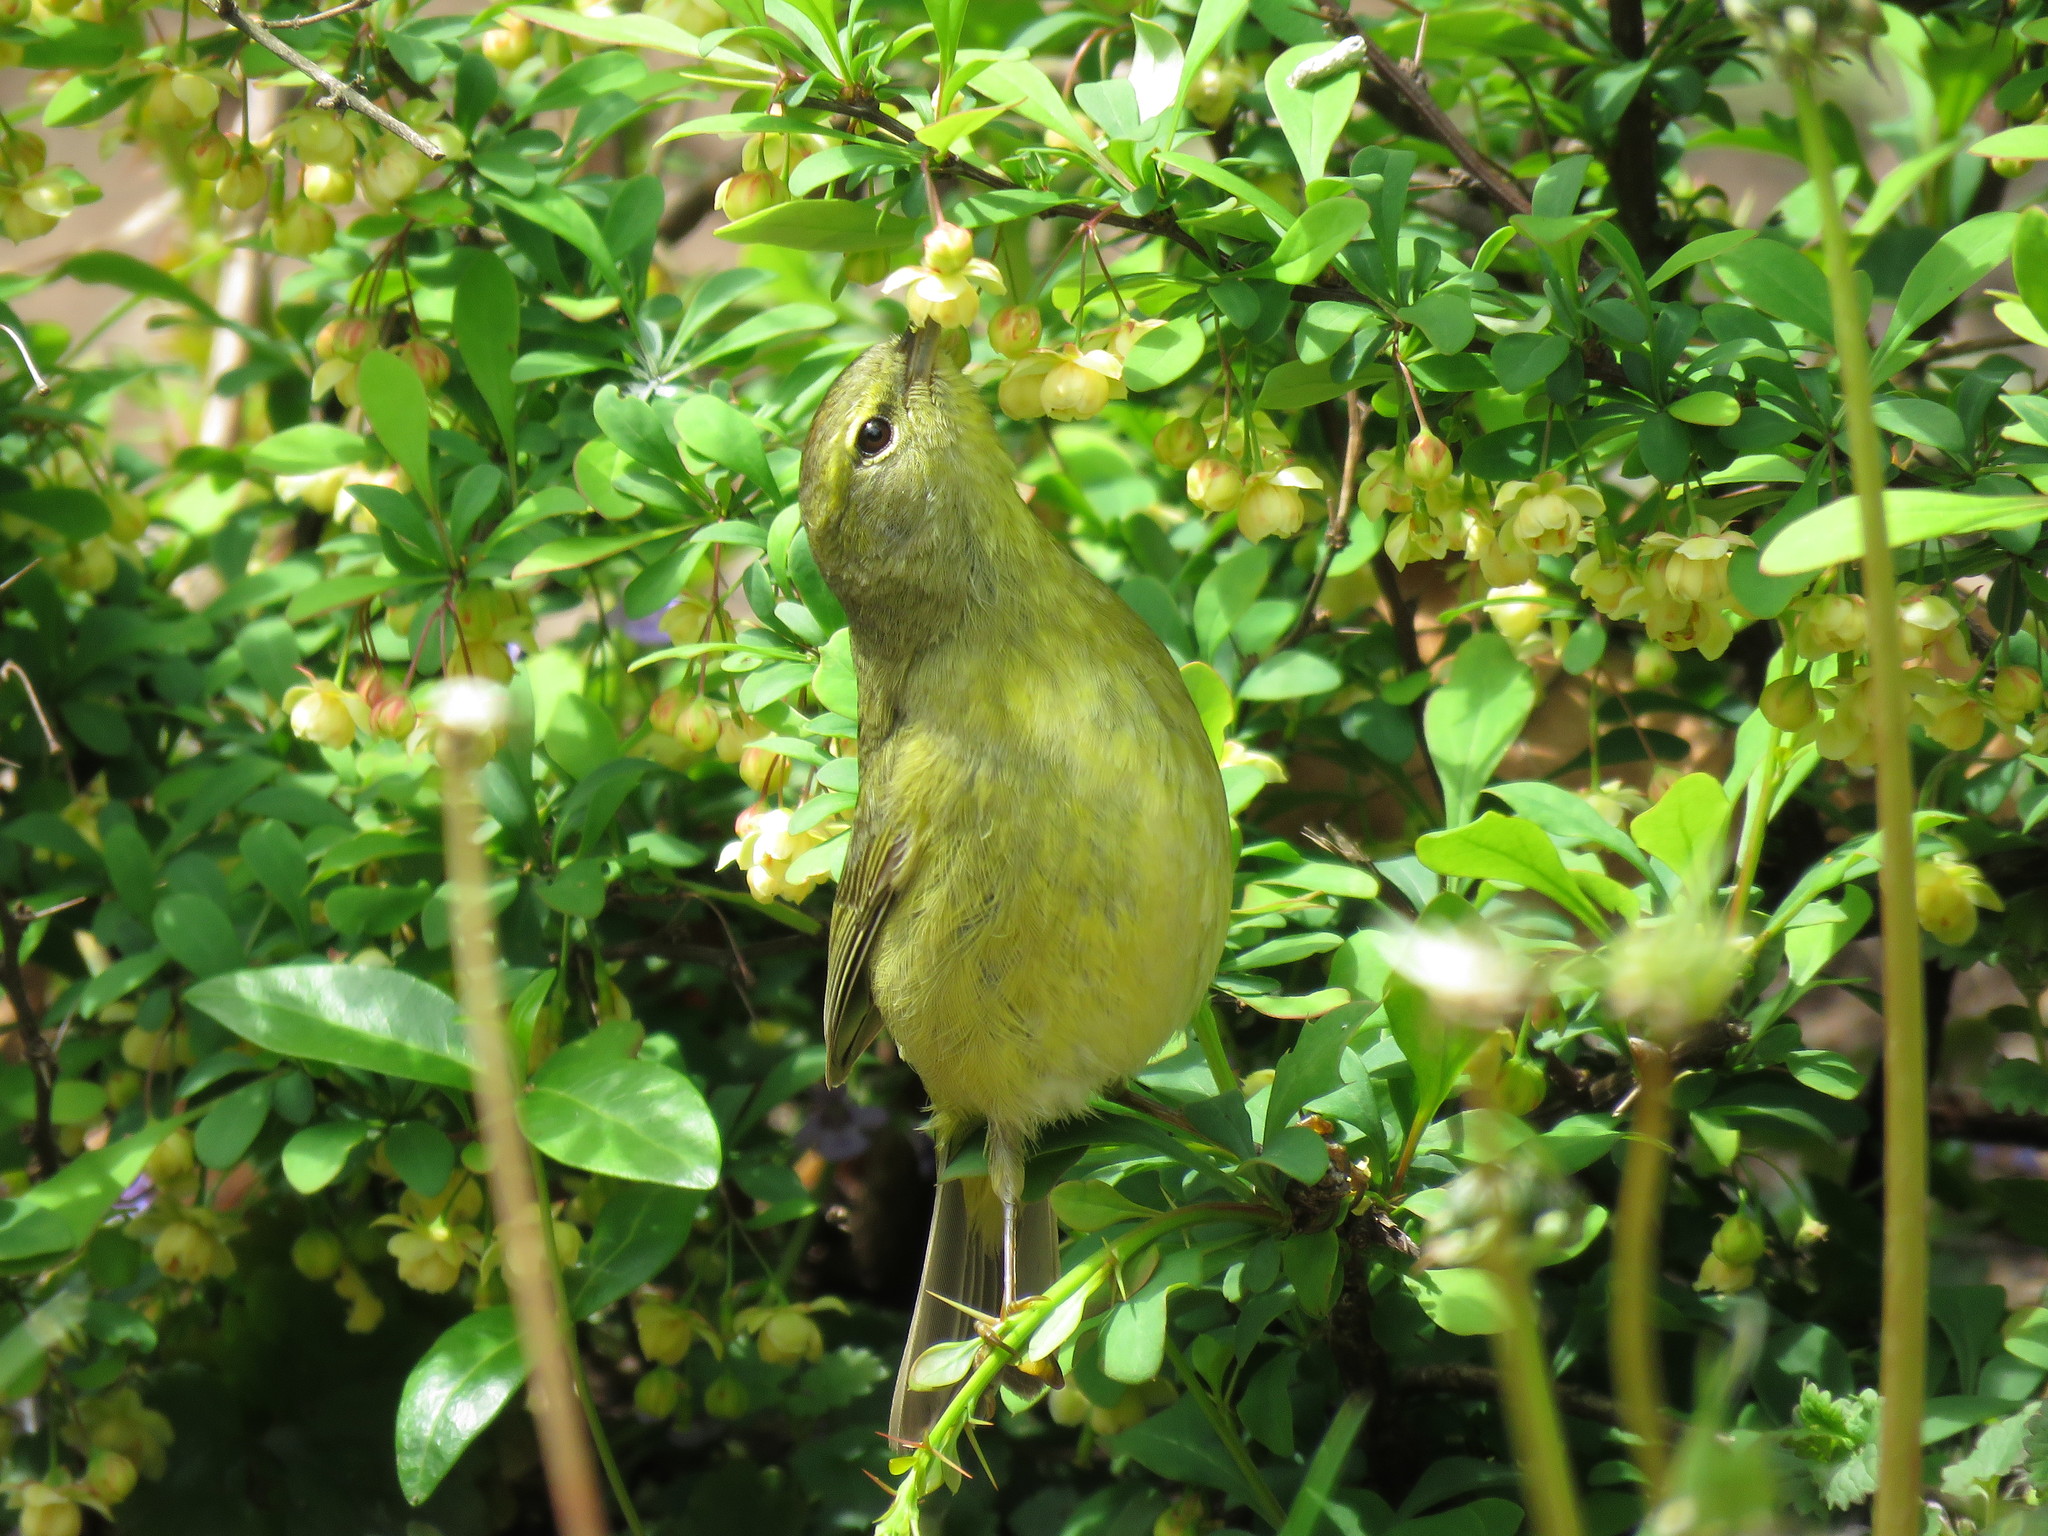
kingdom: Animalia
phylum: Chordata
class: Aves
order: Passeriformes
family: Parulidae
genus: Leiothlypis
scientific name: Leiothlypis celata
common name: Orange-crowned warbler
